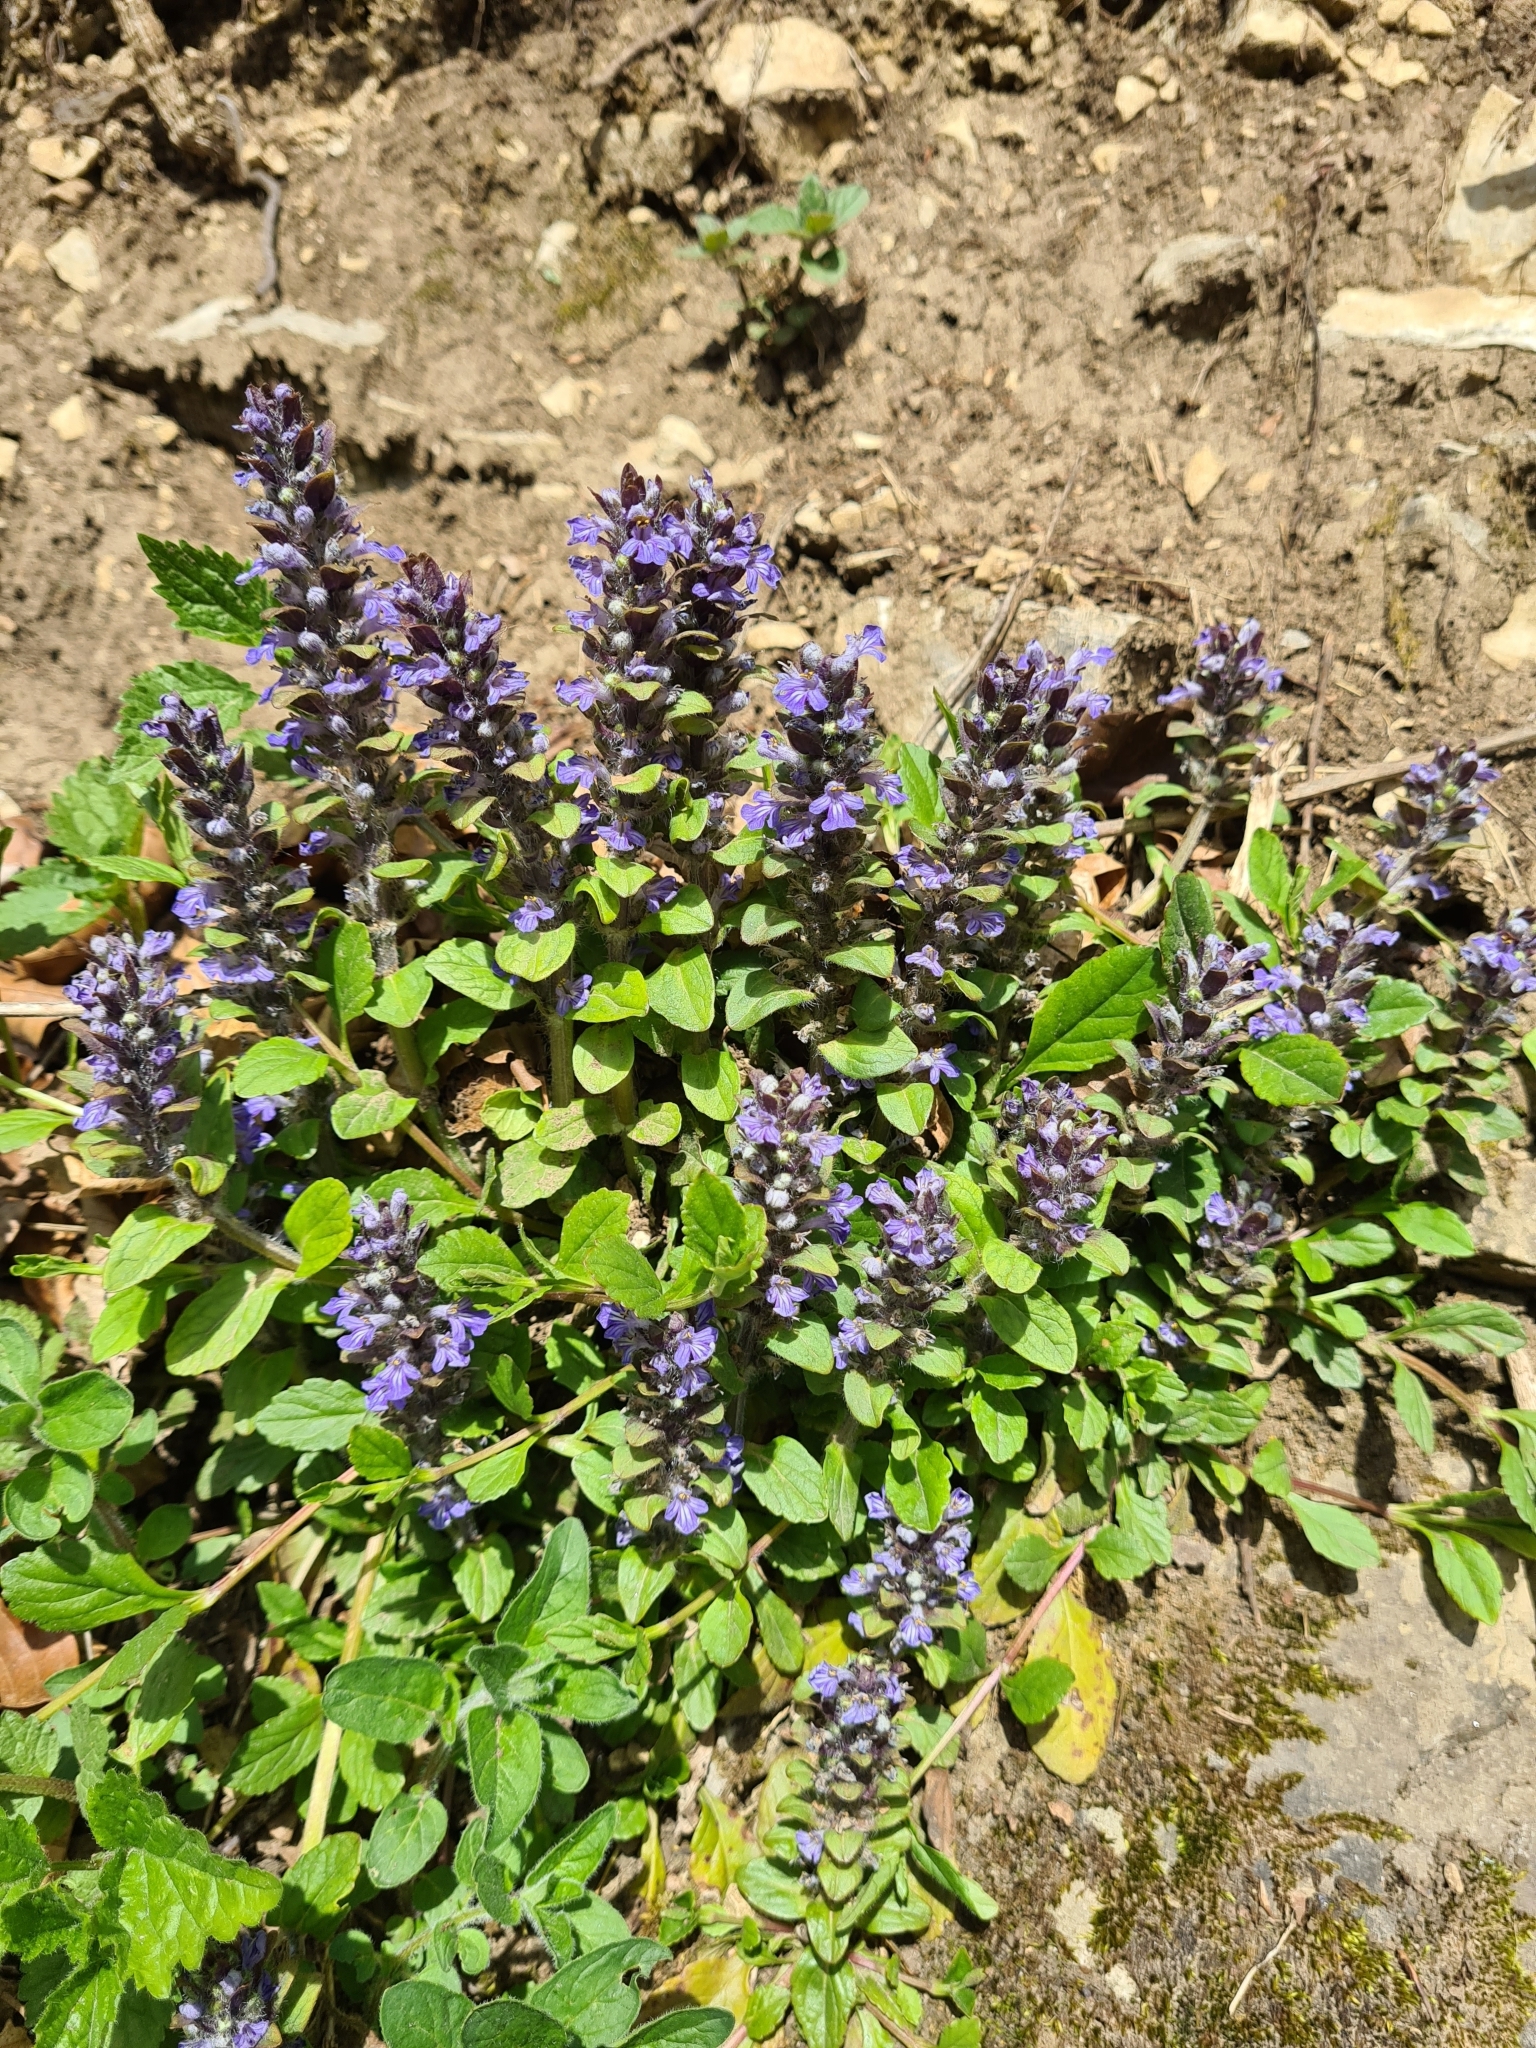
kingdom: Plantae
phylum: Tracheophyta
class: Magnoliopsida
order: Lamiales
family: Lamiaceae
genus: Ajuga
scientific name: Ajuga reptans
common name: Bugle
